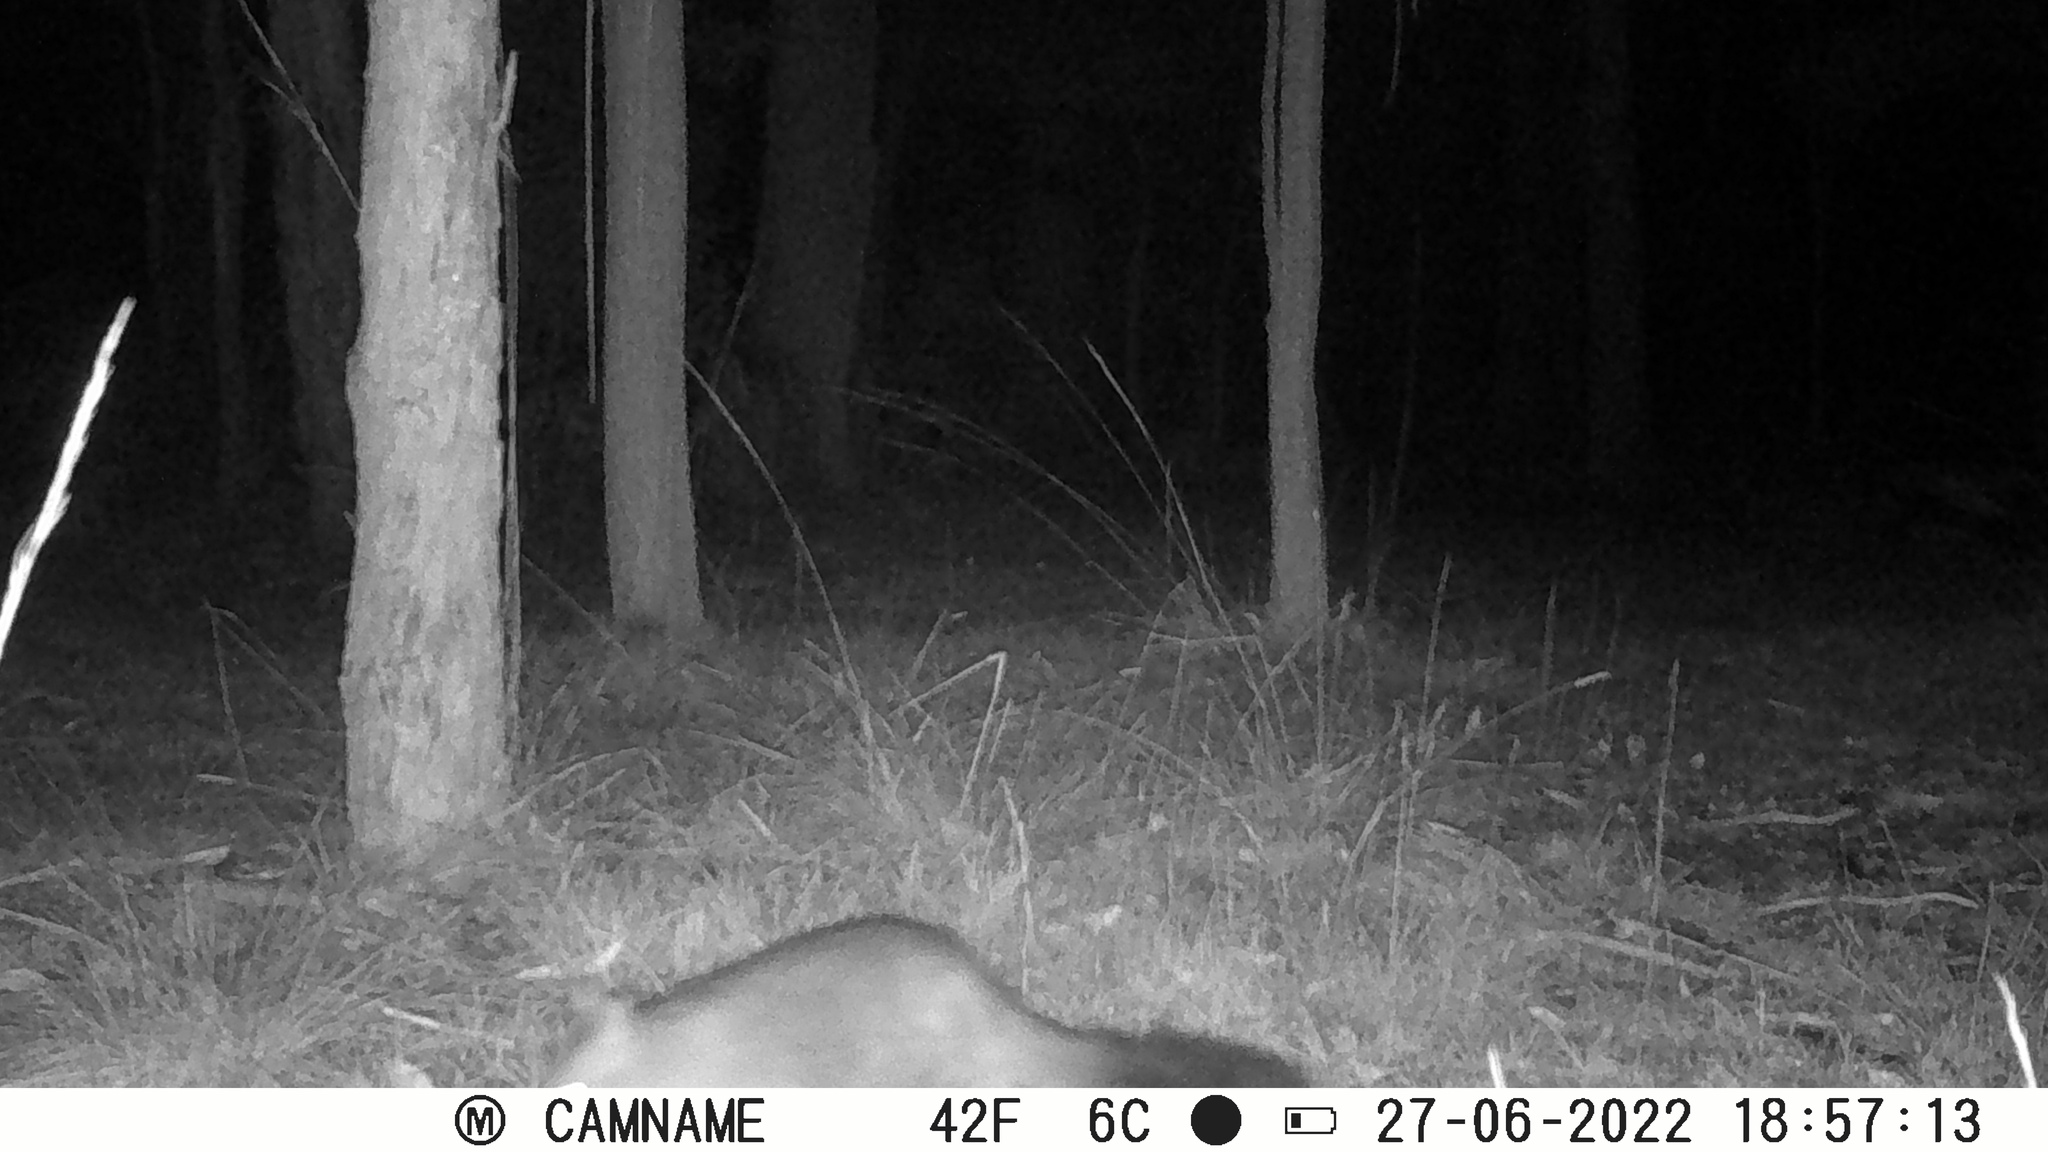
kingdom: Animalia
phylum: Chordata
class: Mammalia
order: Diprotodontia
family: Phalangeridae
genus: Trichosurus
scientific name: Trichosurus vulpecula
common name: Common brushtail
